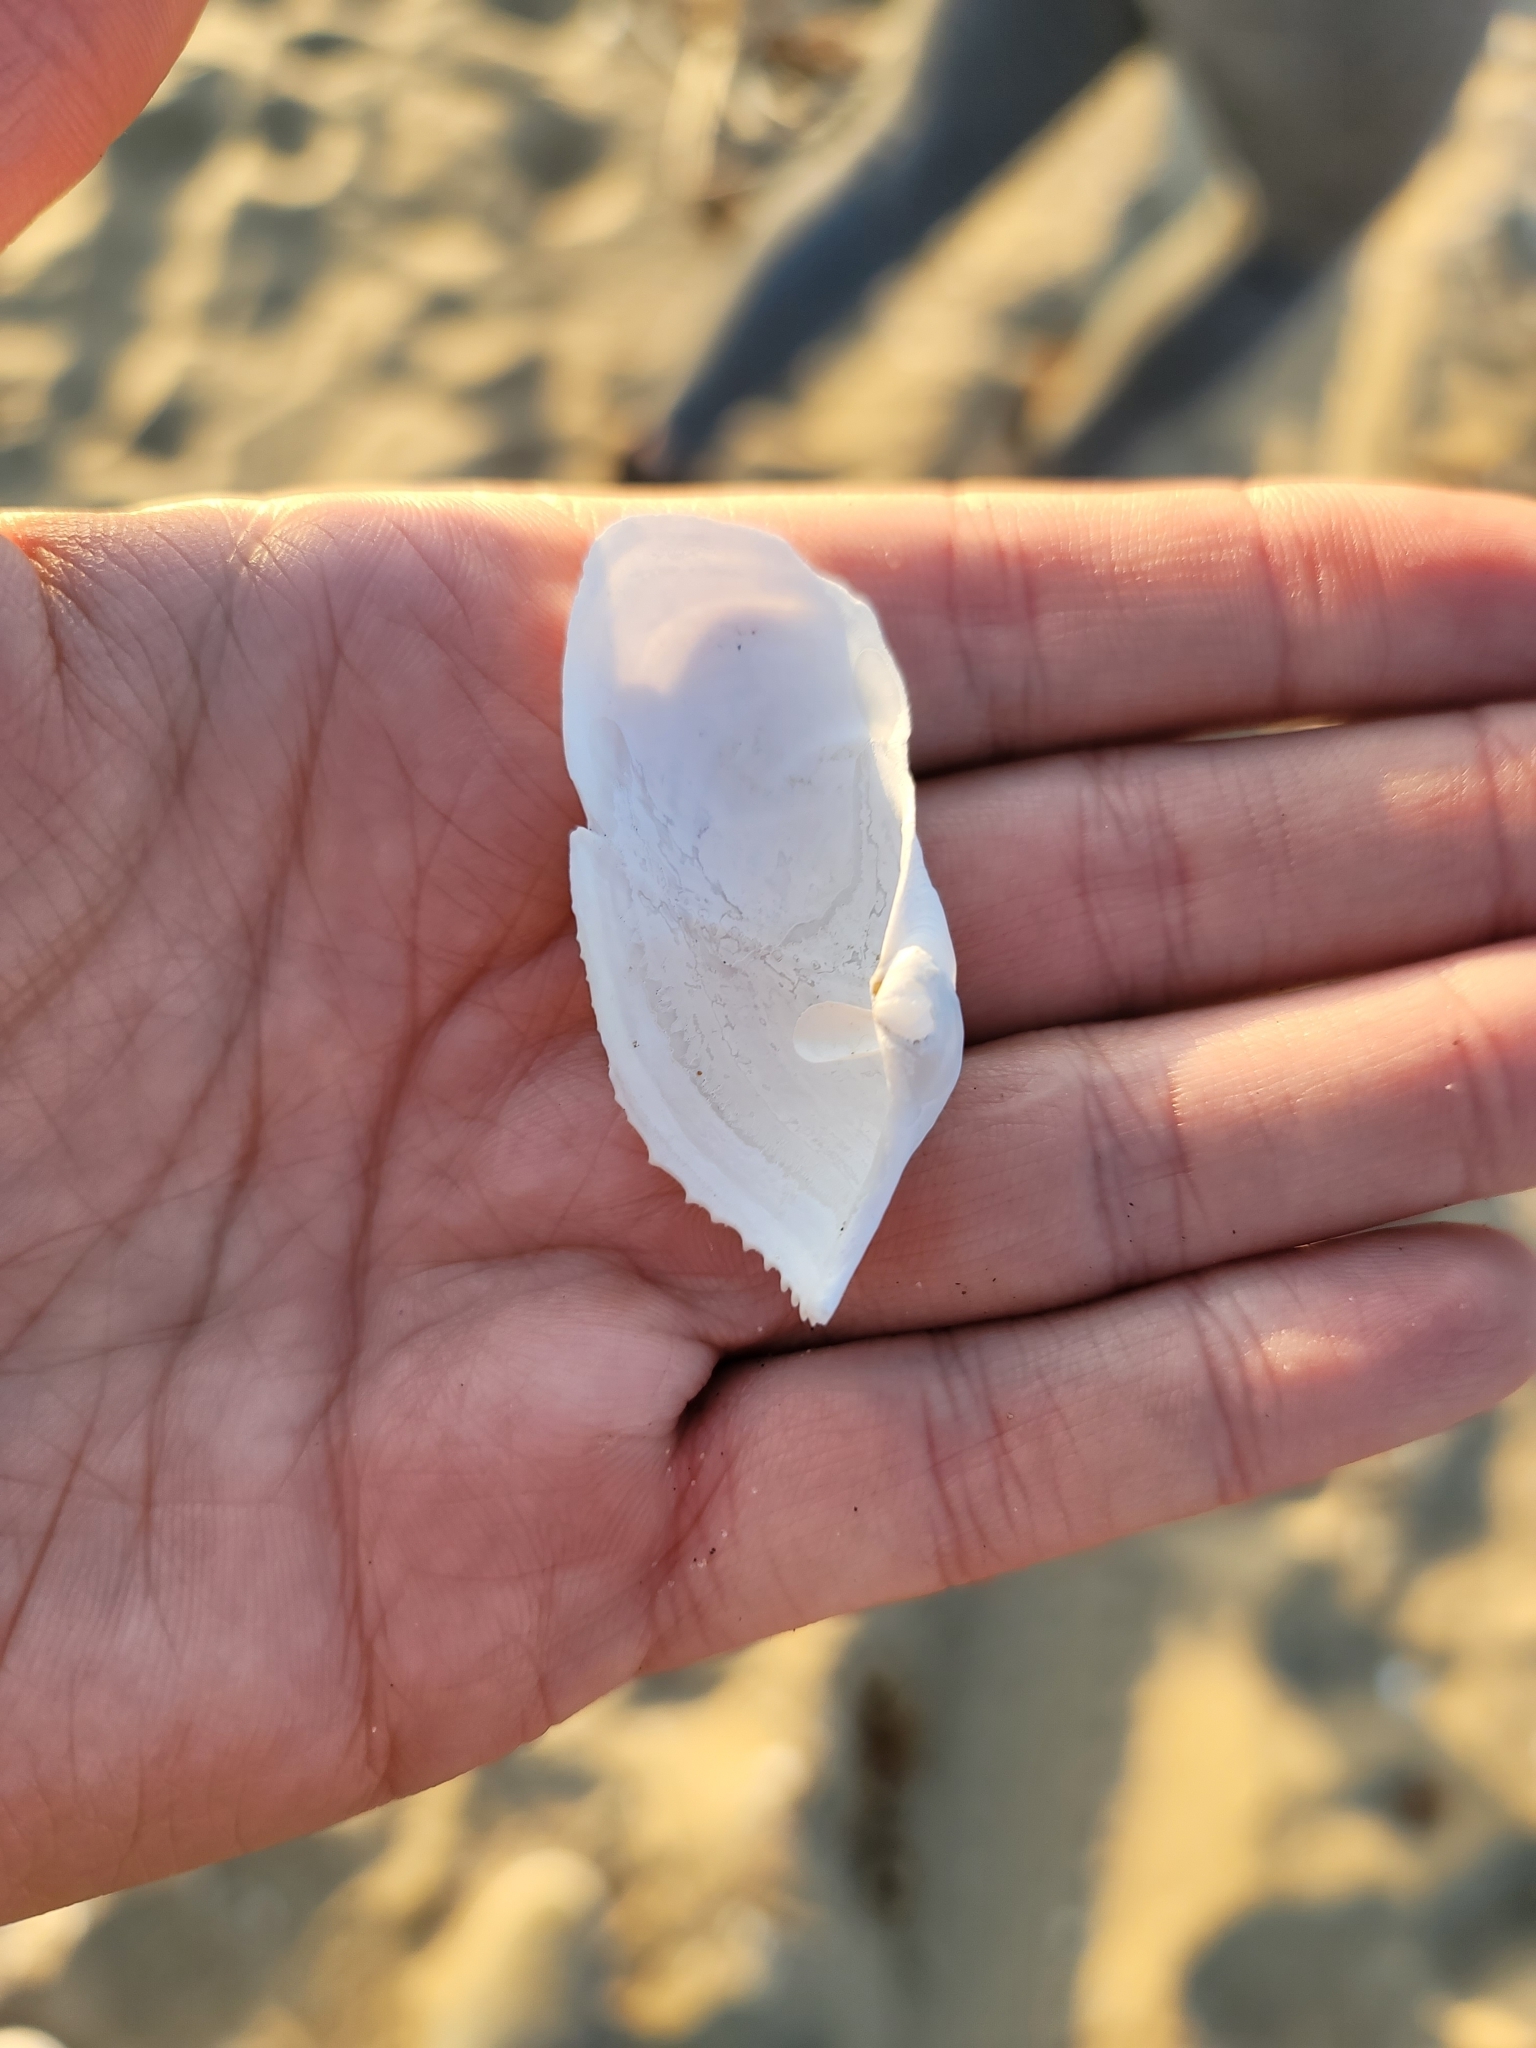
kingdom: Animalia
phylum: Mollusca
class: Bivalvia
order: Myida
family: Pholadidae
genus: Zirfaea
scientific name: Zirfaea pilsbryi
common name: Rough piddock
